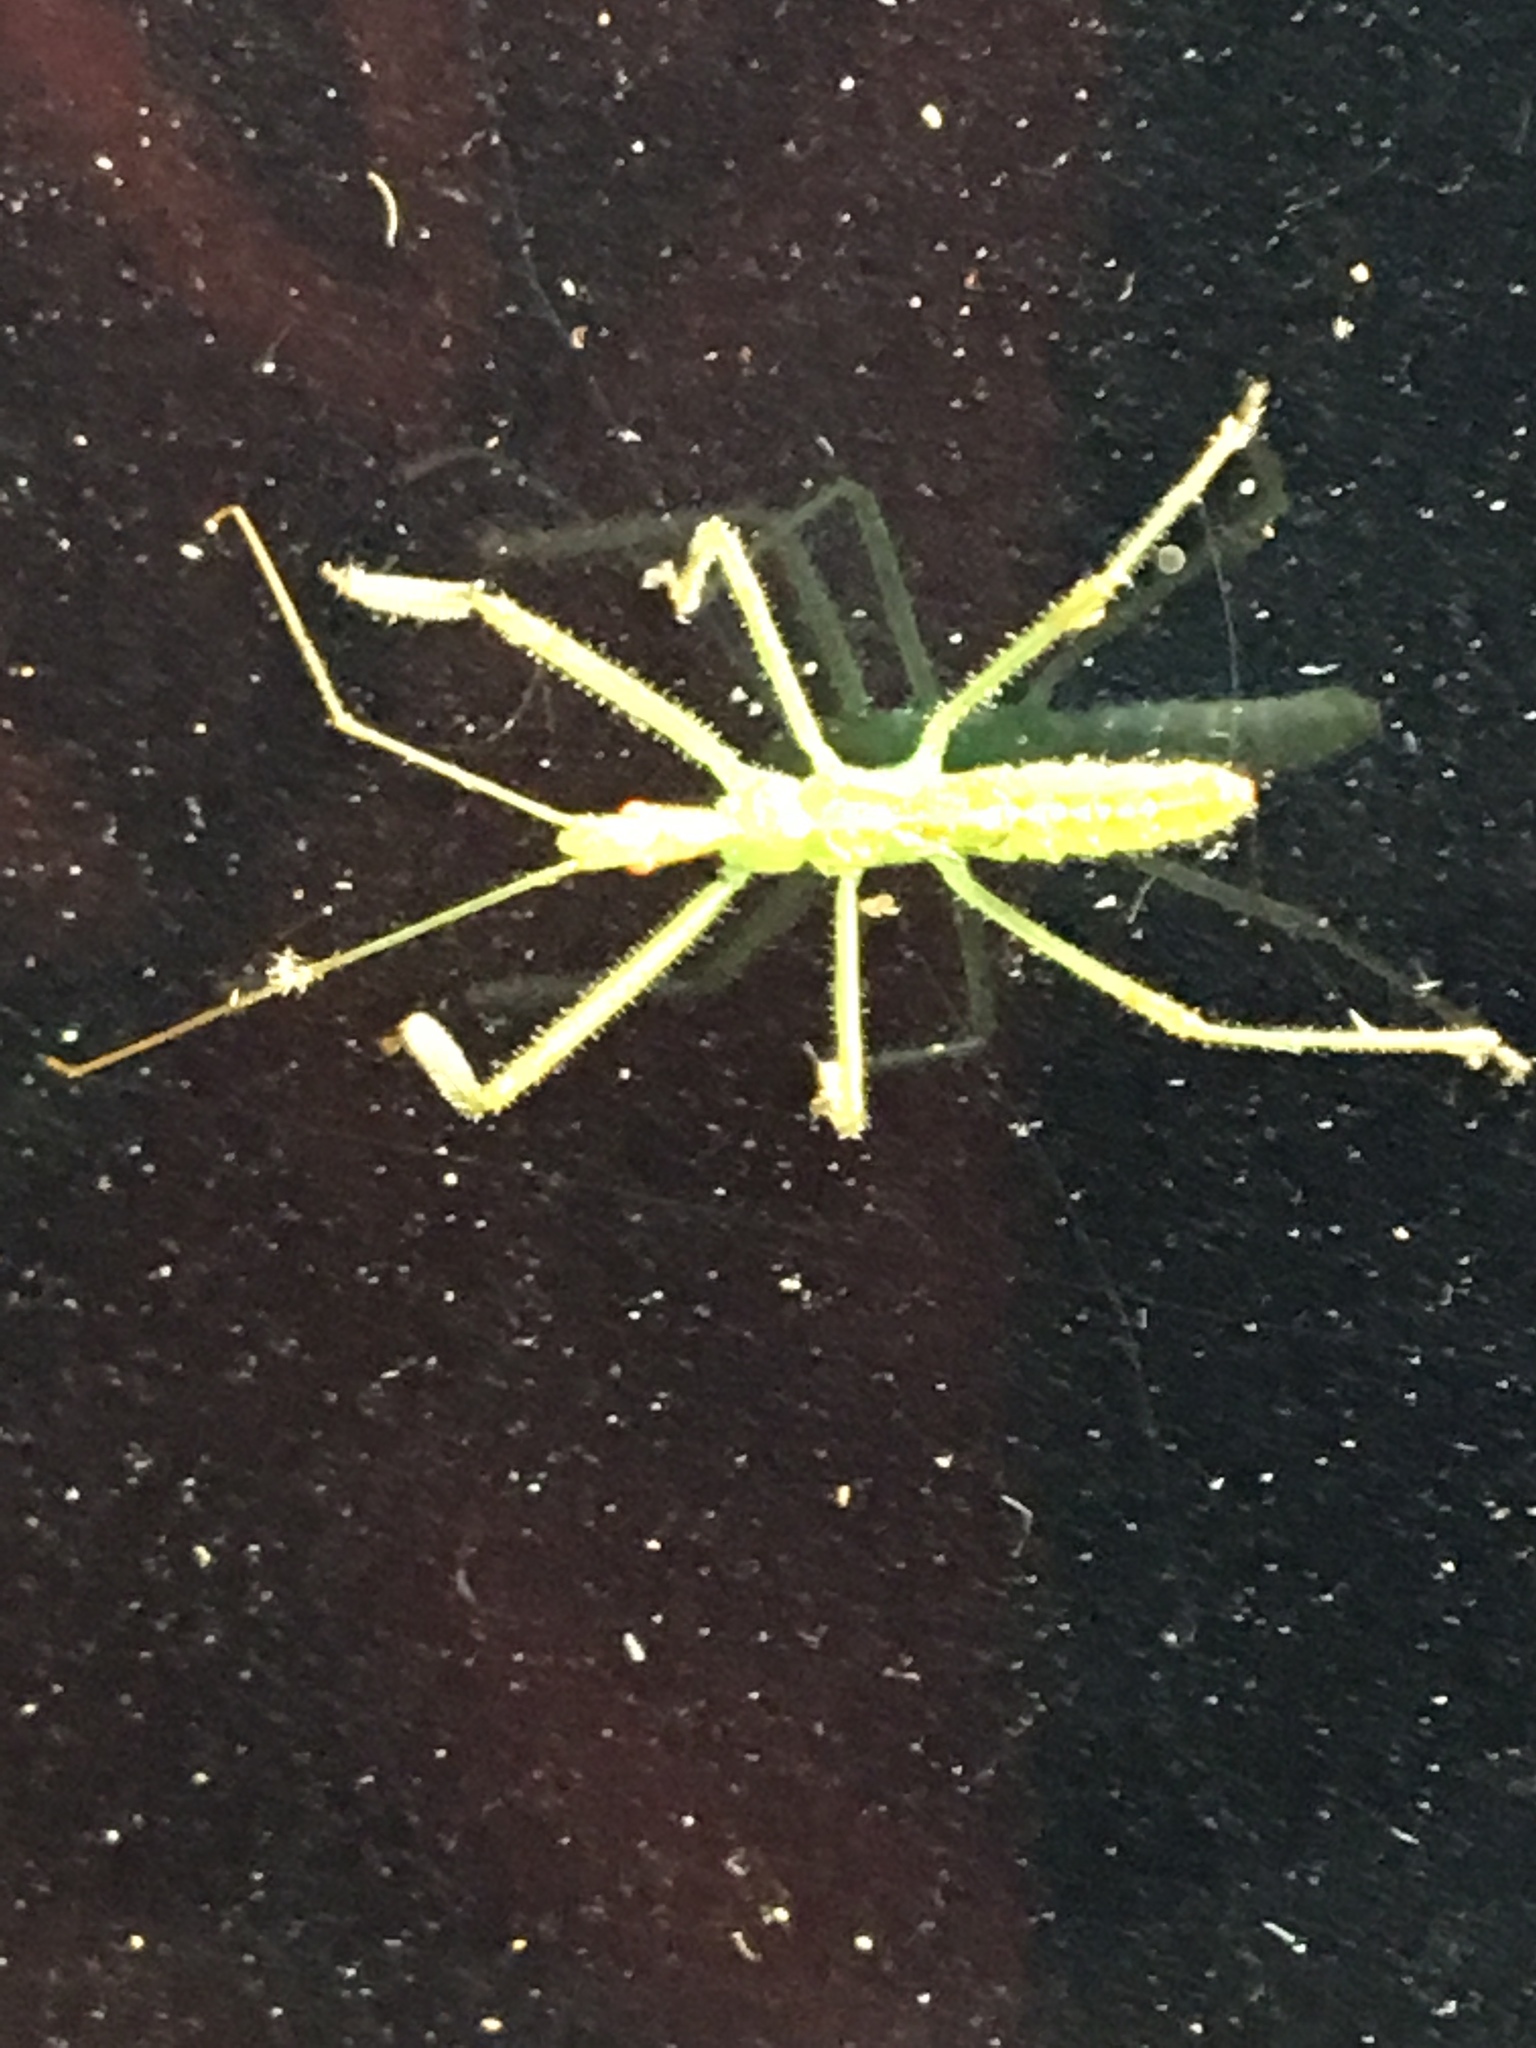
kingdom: Animalia
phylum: Arthropoda
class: Insecta
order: Hemiptera
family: Reduviidae
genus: Zelus
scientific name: Zelus luridus
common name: Pale green assassin bug
